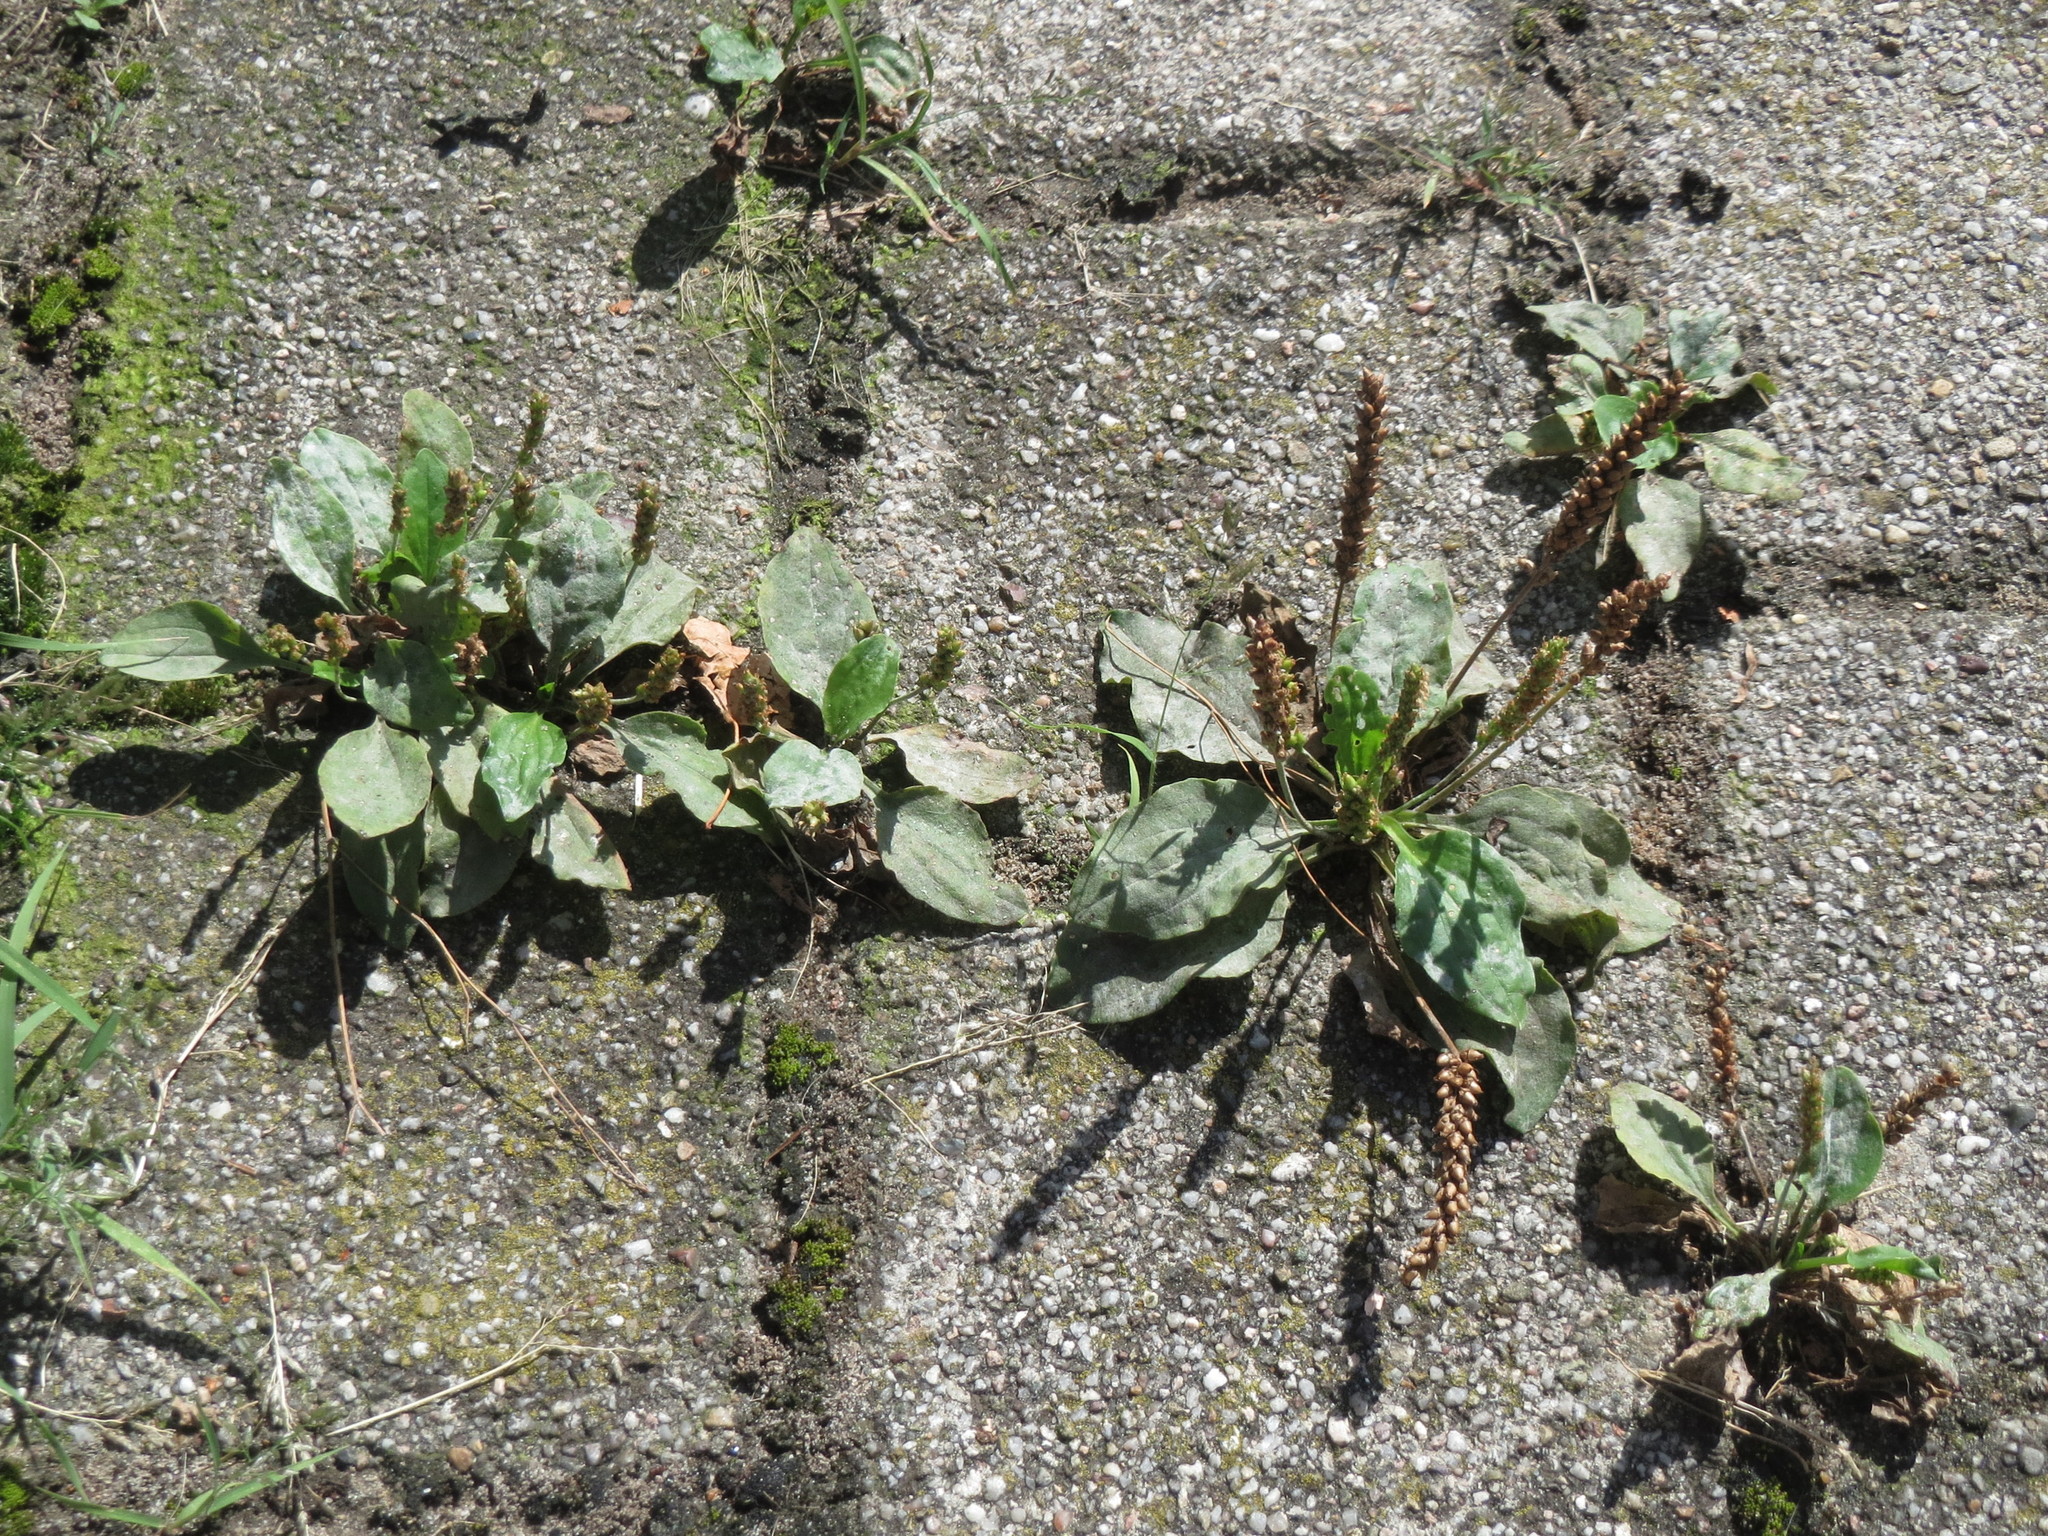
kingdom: Plantae
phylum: Tracheophyta
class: Magnoliopsida
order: Lamiales
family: Plantaginaceae
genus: Plantago
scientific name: Plantago major
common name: Common plantain
